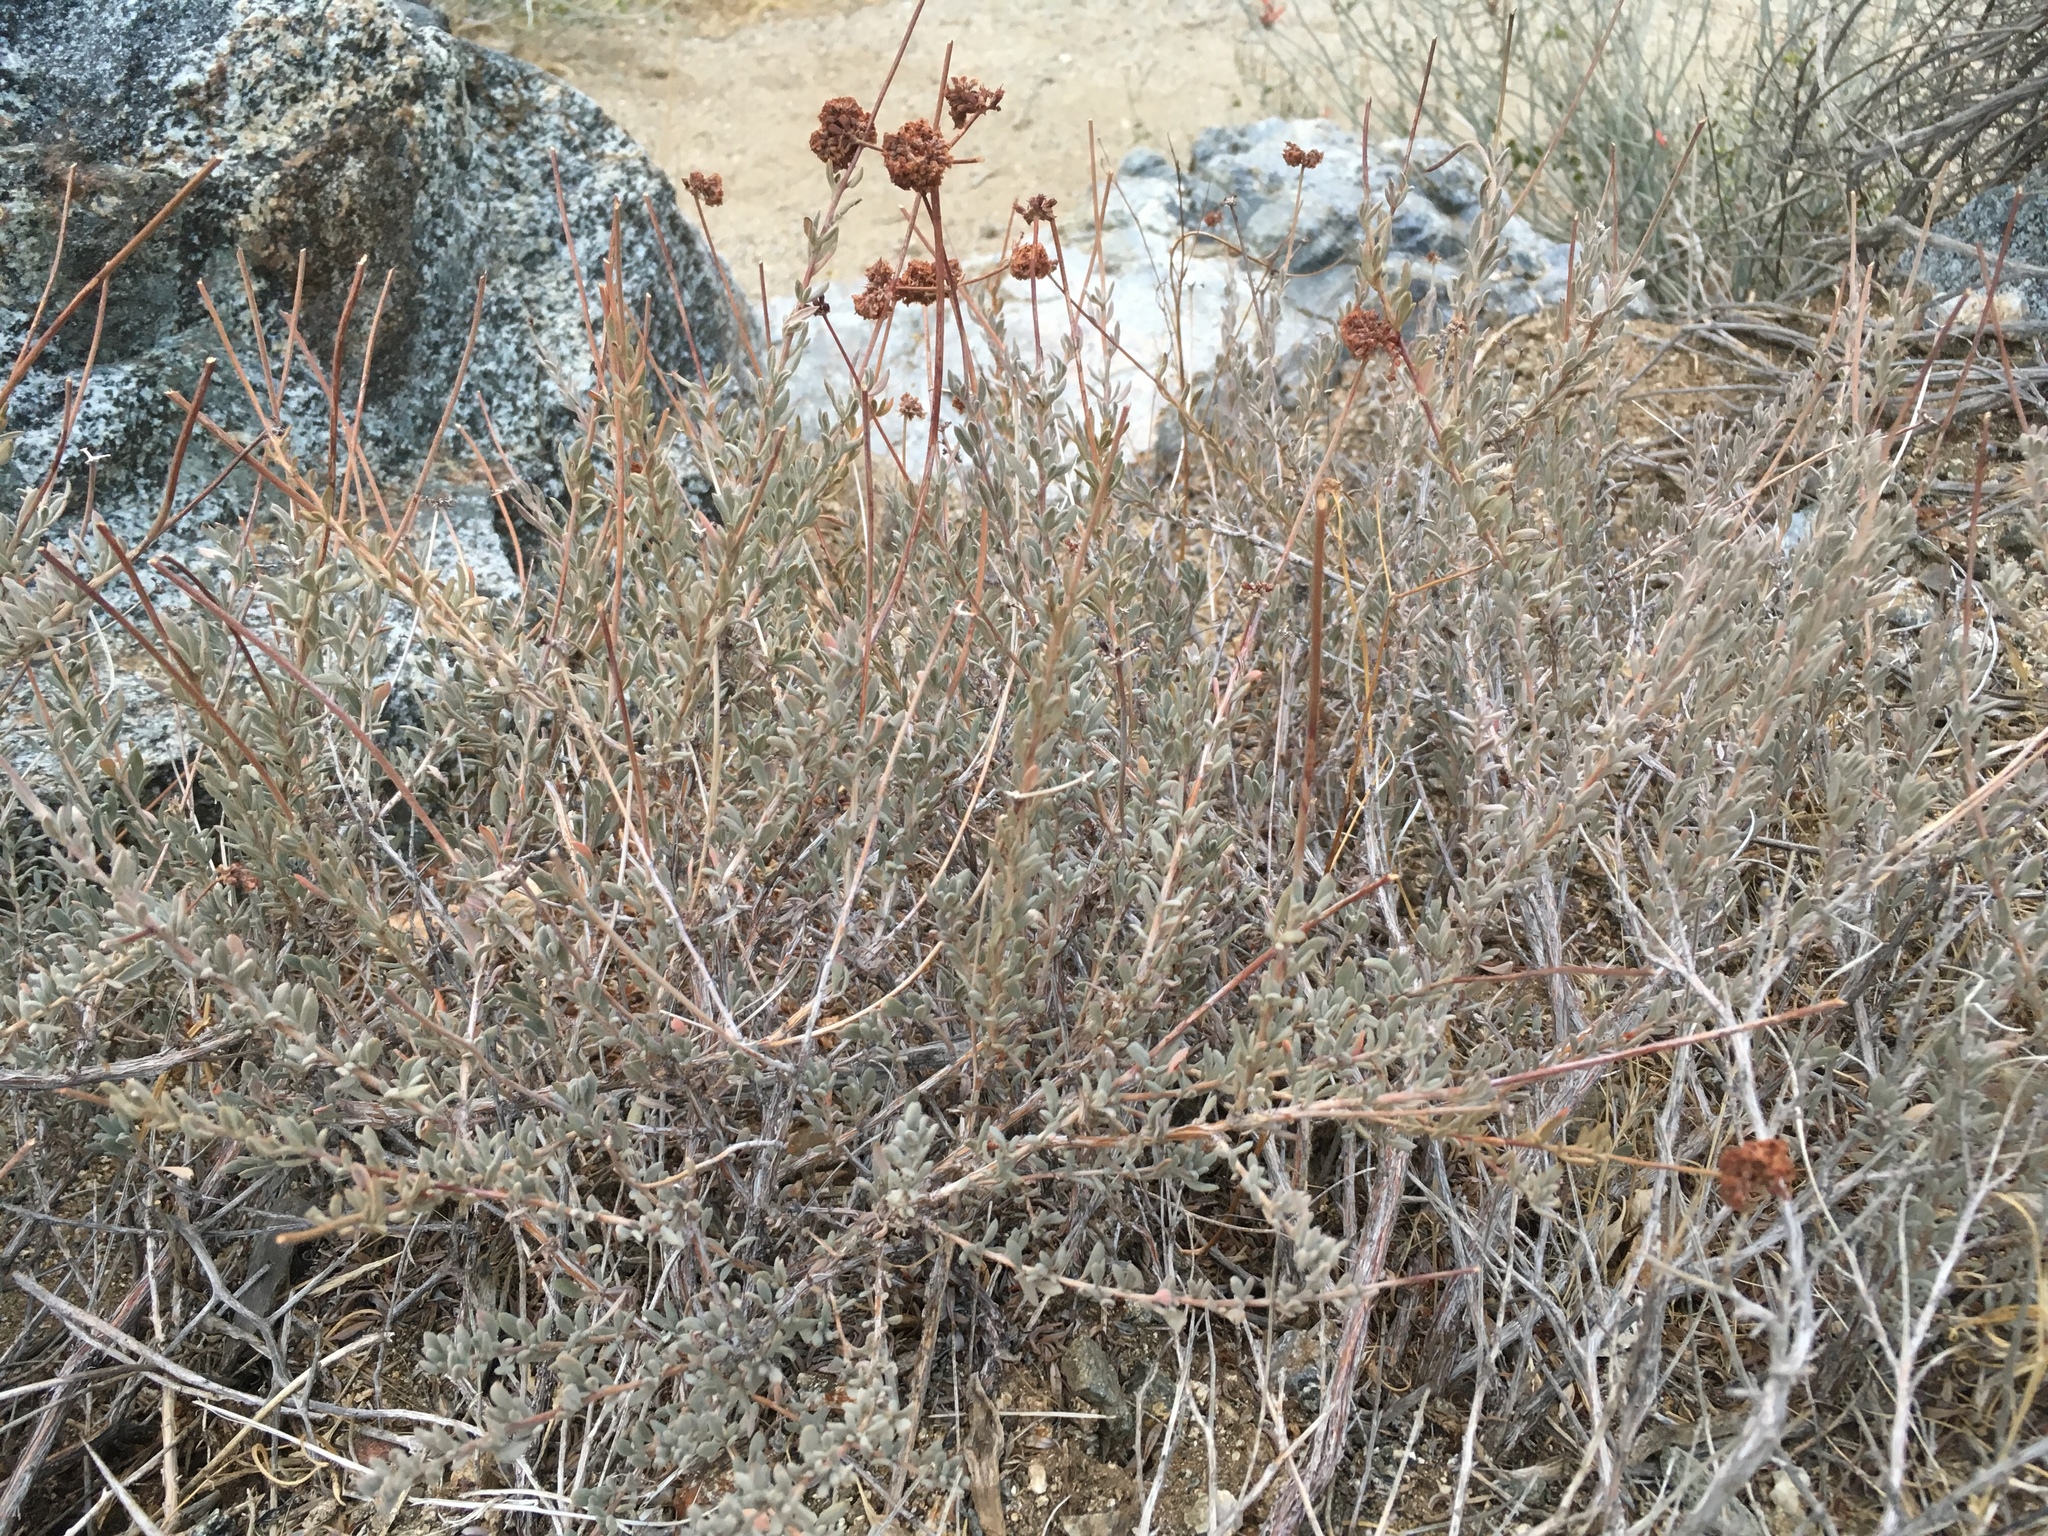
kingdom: Plantae
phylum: Tracheophyta
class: Magnoliopsida
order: Caryophyllales
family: Polygonaceae
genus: Eriogonum
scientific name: Eriogonum fasciculatum
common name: California wild buckwheat
